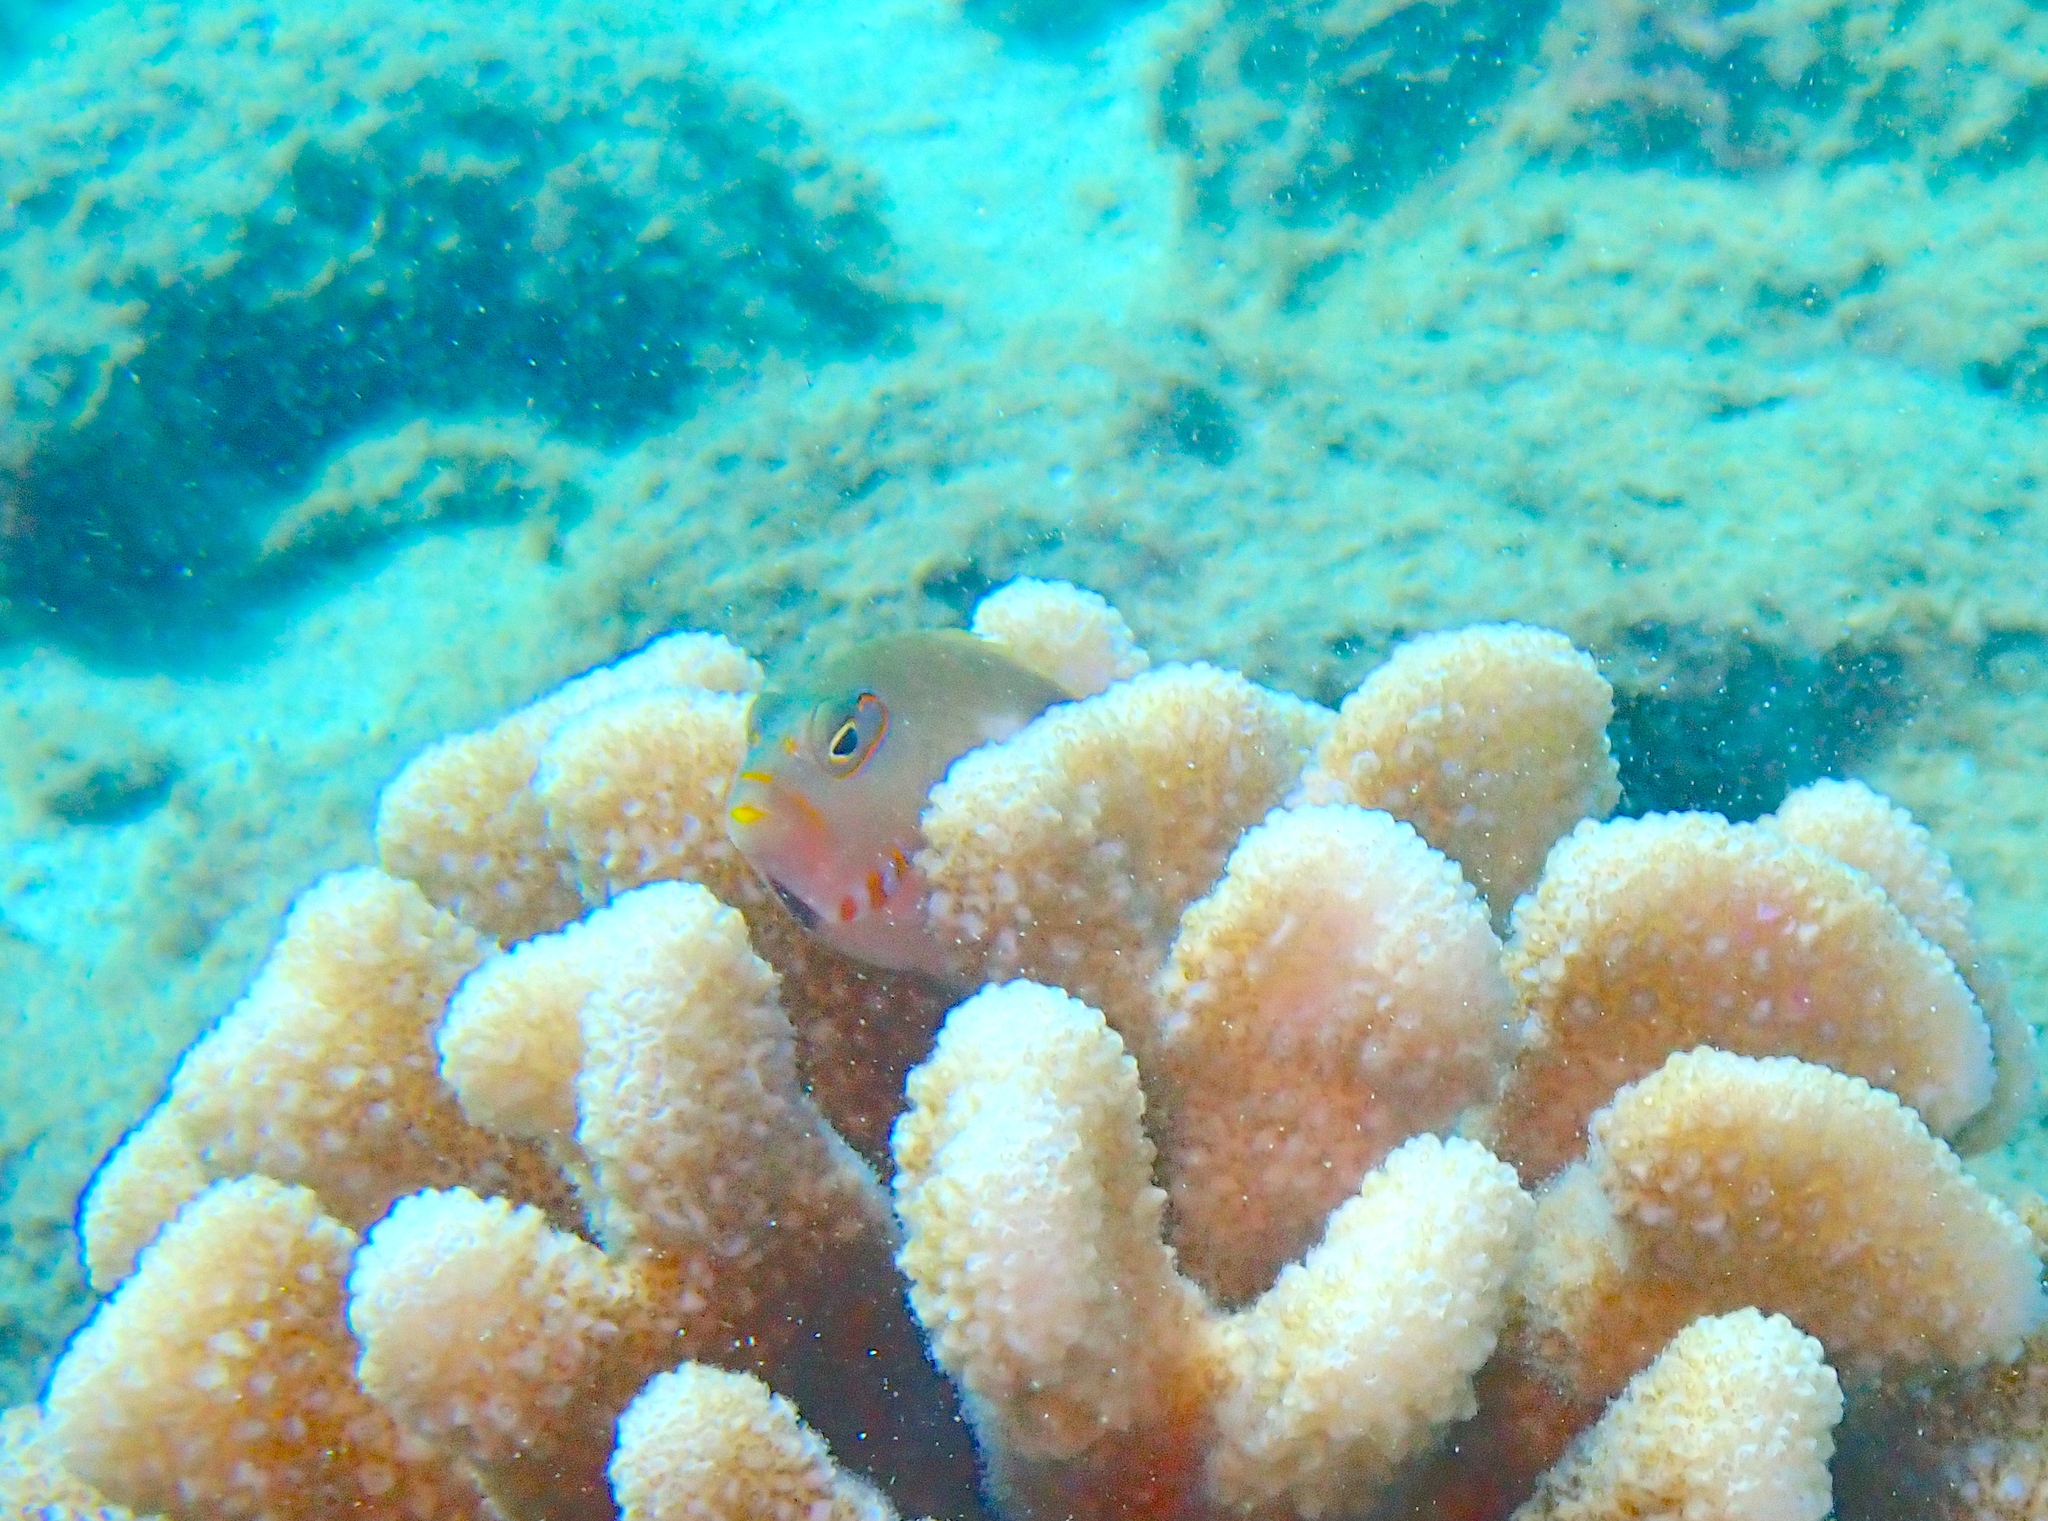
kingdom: Animalia
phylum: Chordata
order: Perciformes
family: Cirrhitidae
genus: Paracirrhites
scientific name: Paracirrhites arcatus
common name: Arc-eye hawkfish
